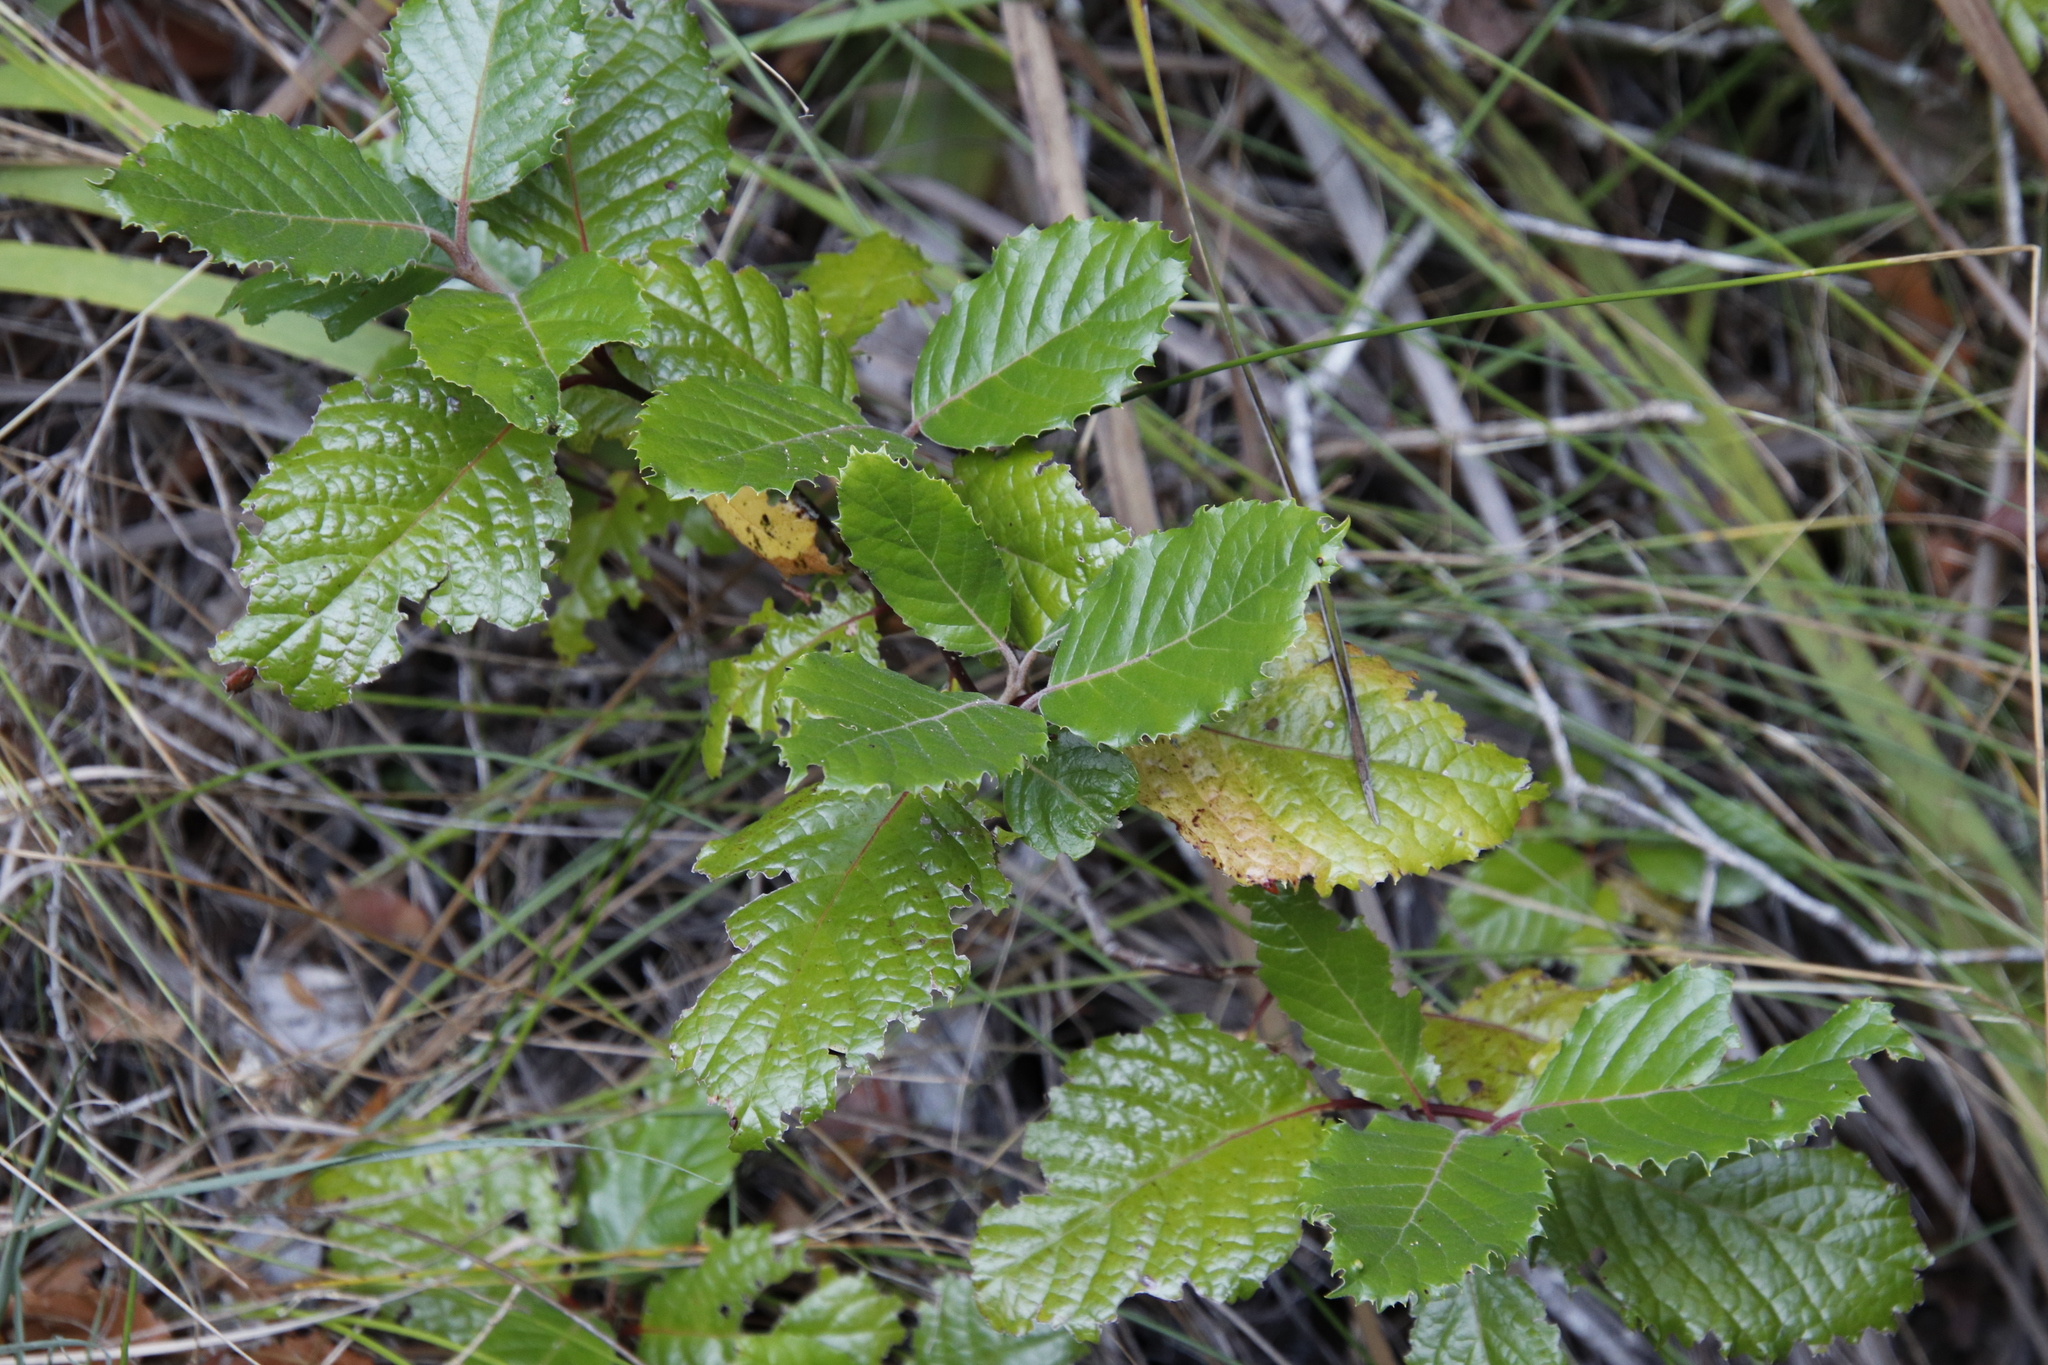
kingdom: Plantae
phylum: Tracheophyta
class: Magnoliopsida
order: Cornales
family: Curtisiaceae
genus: Curtisia
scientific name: Curtisia dentata
